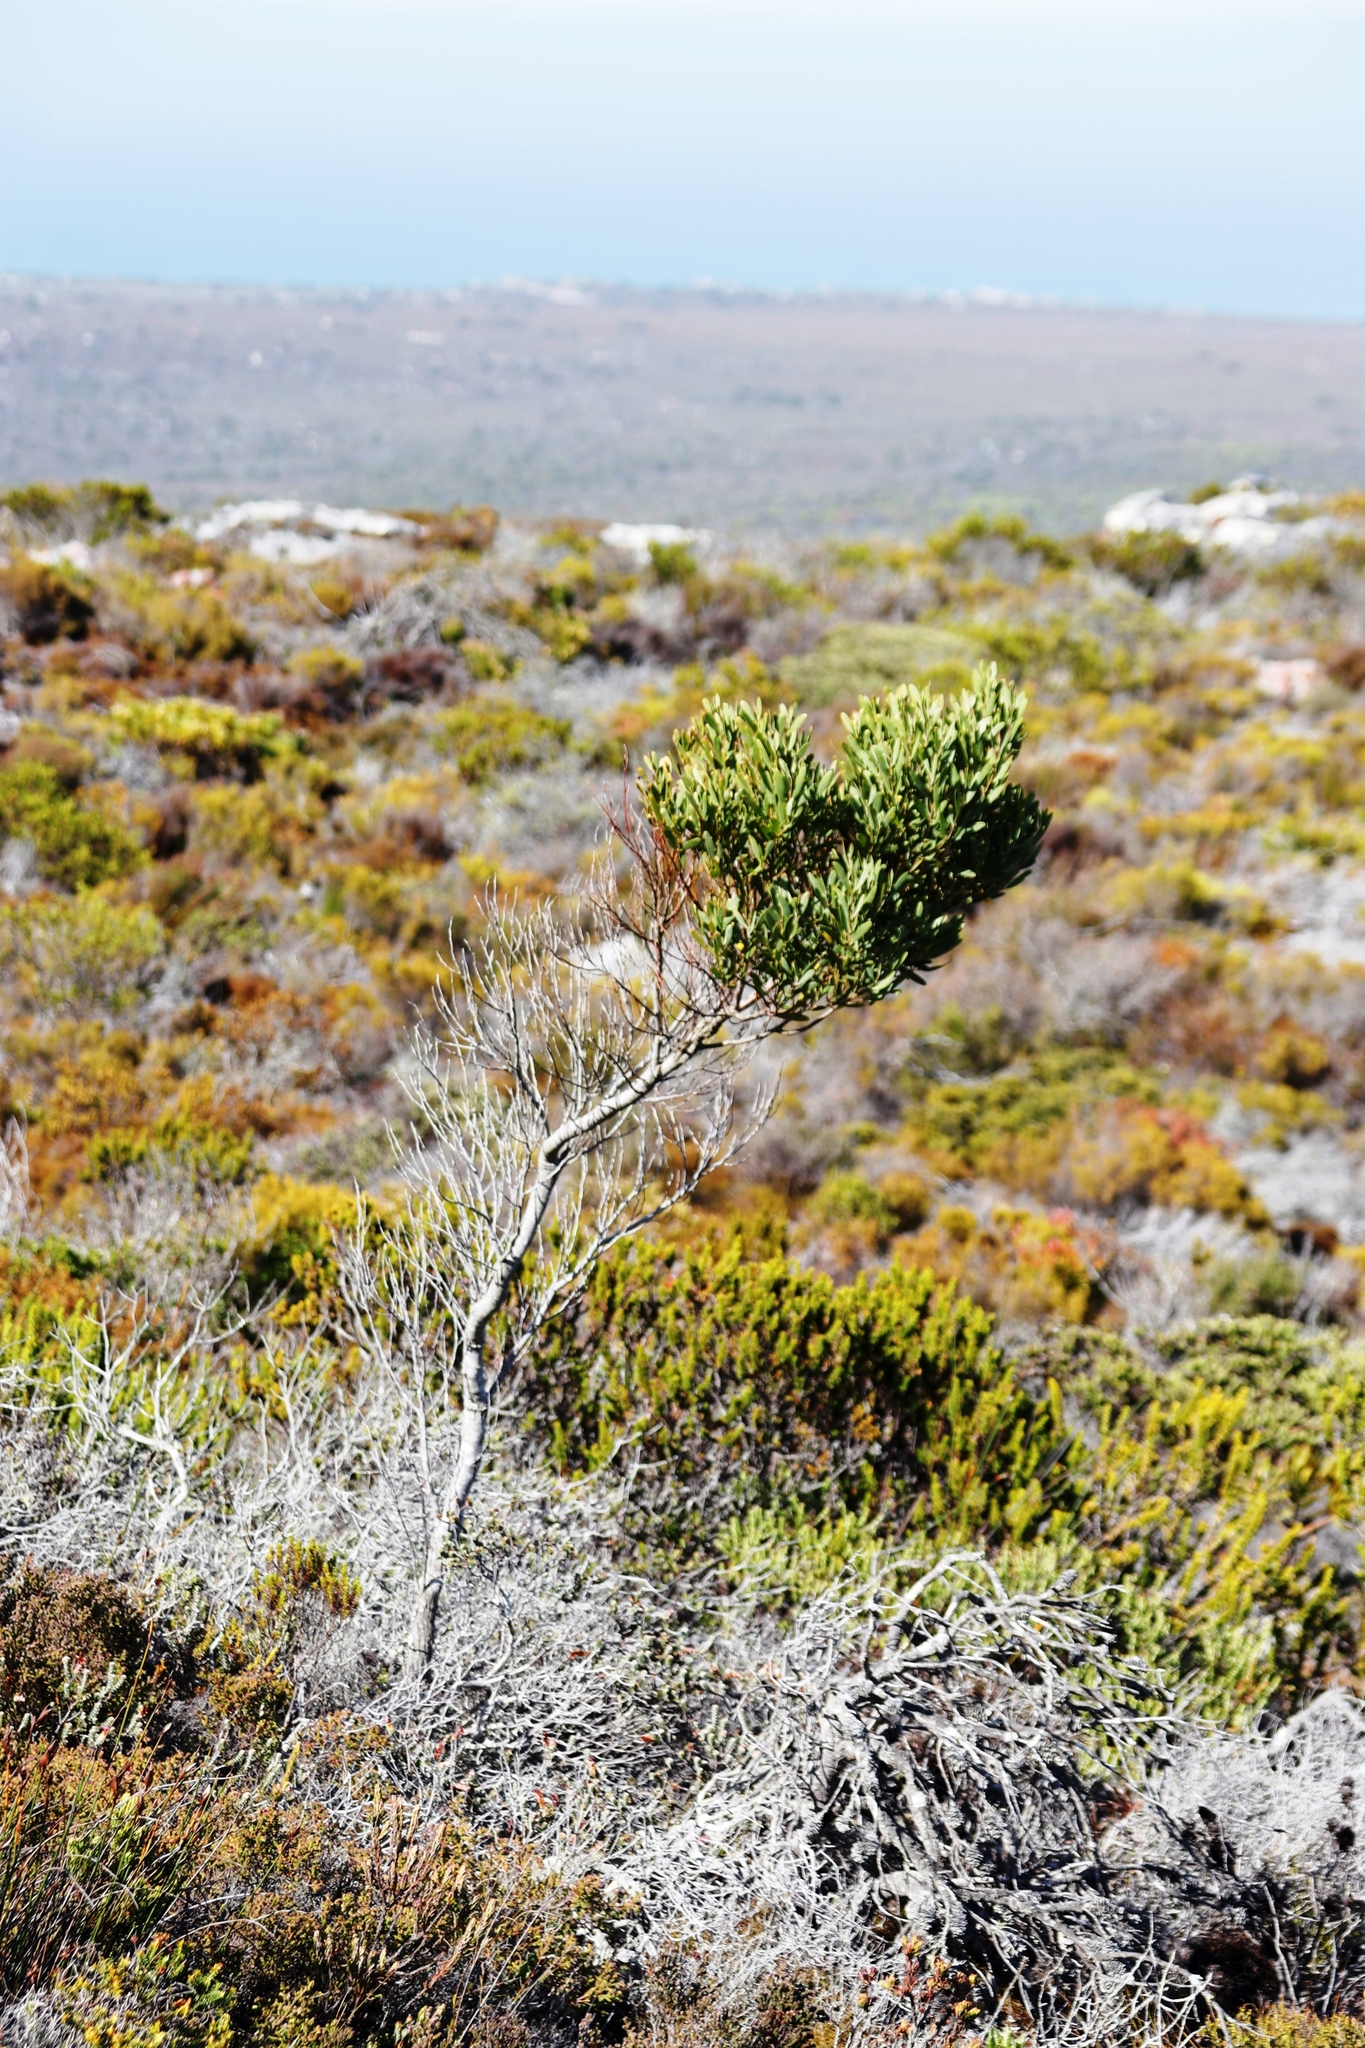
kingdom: Plantae
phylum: Tracheophyta
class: Magnoliopsida
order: Fabales
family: Fabaceae
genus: Acacia
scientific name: Acacia cyclops
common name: Coastal wattle
